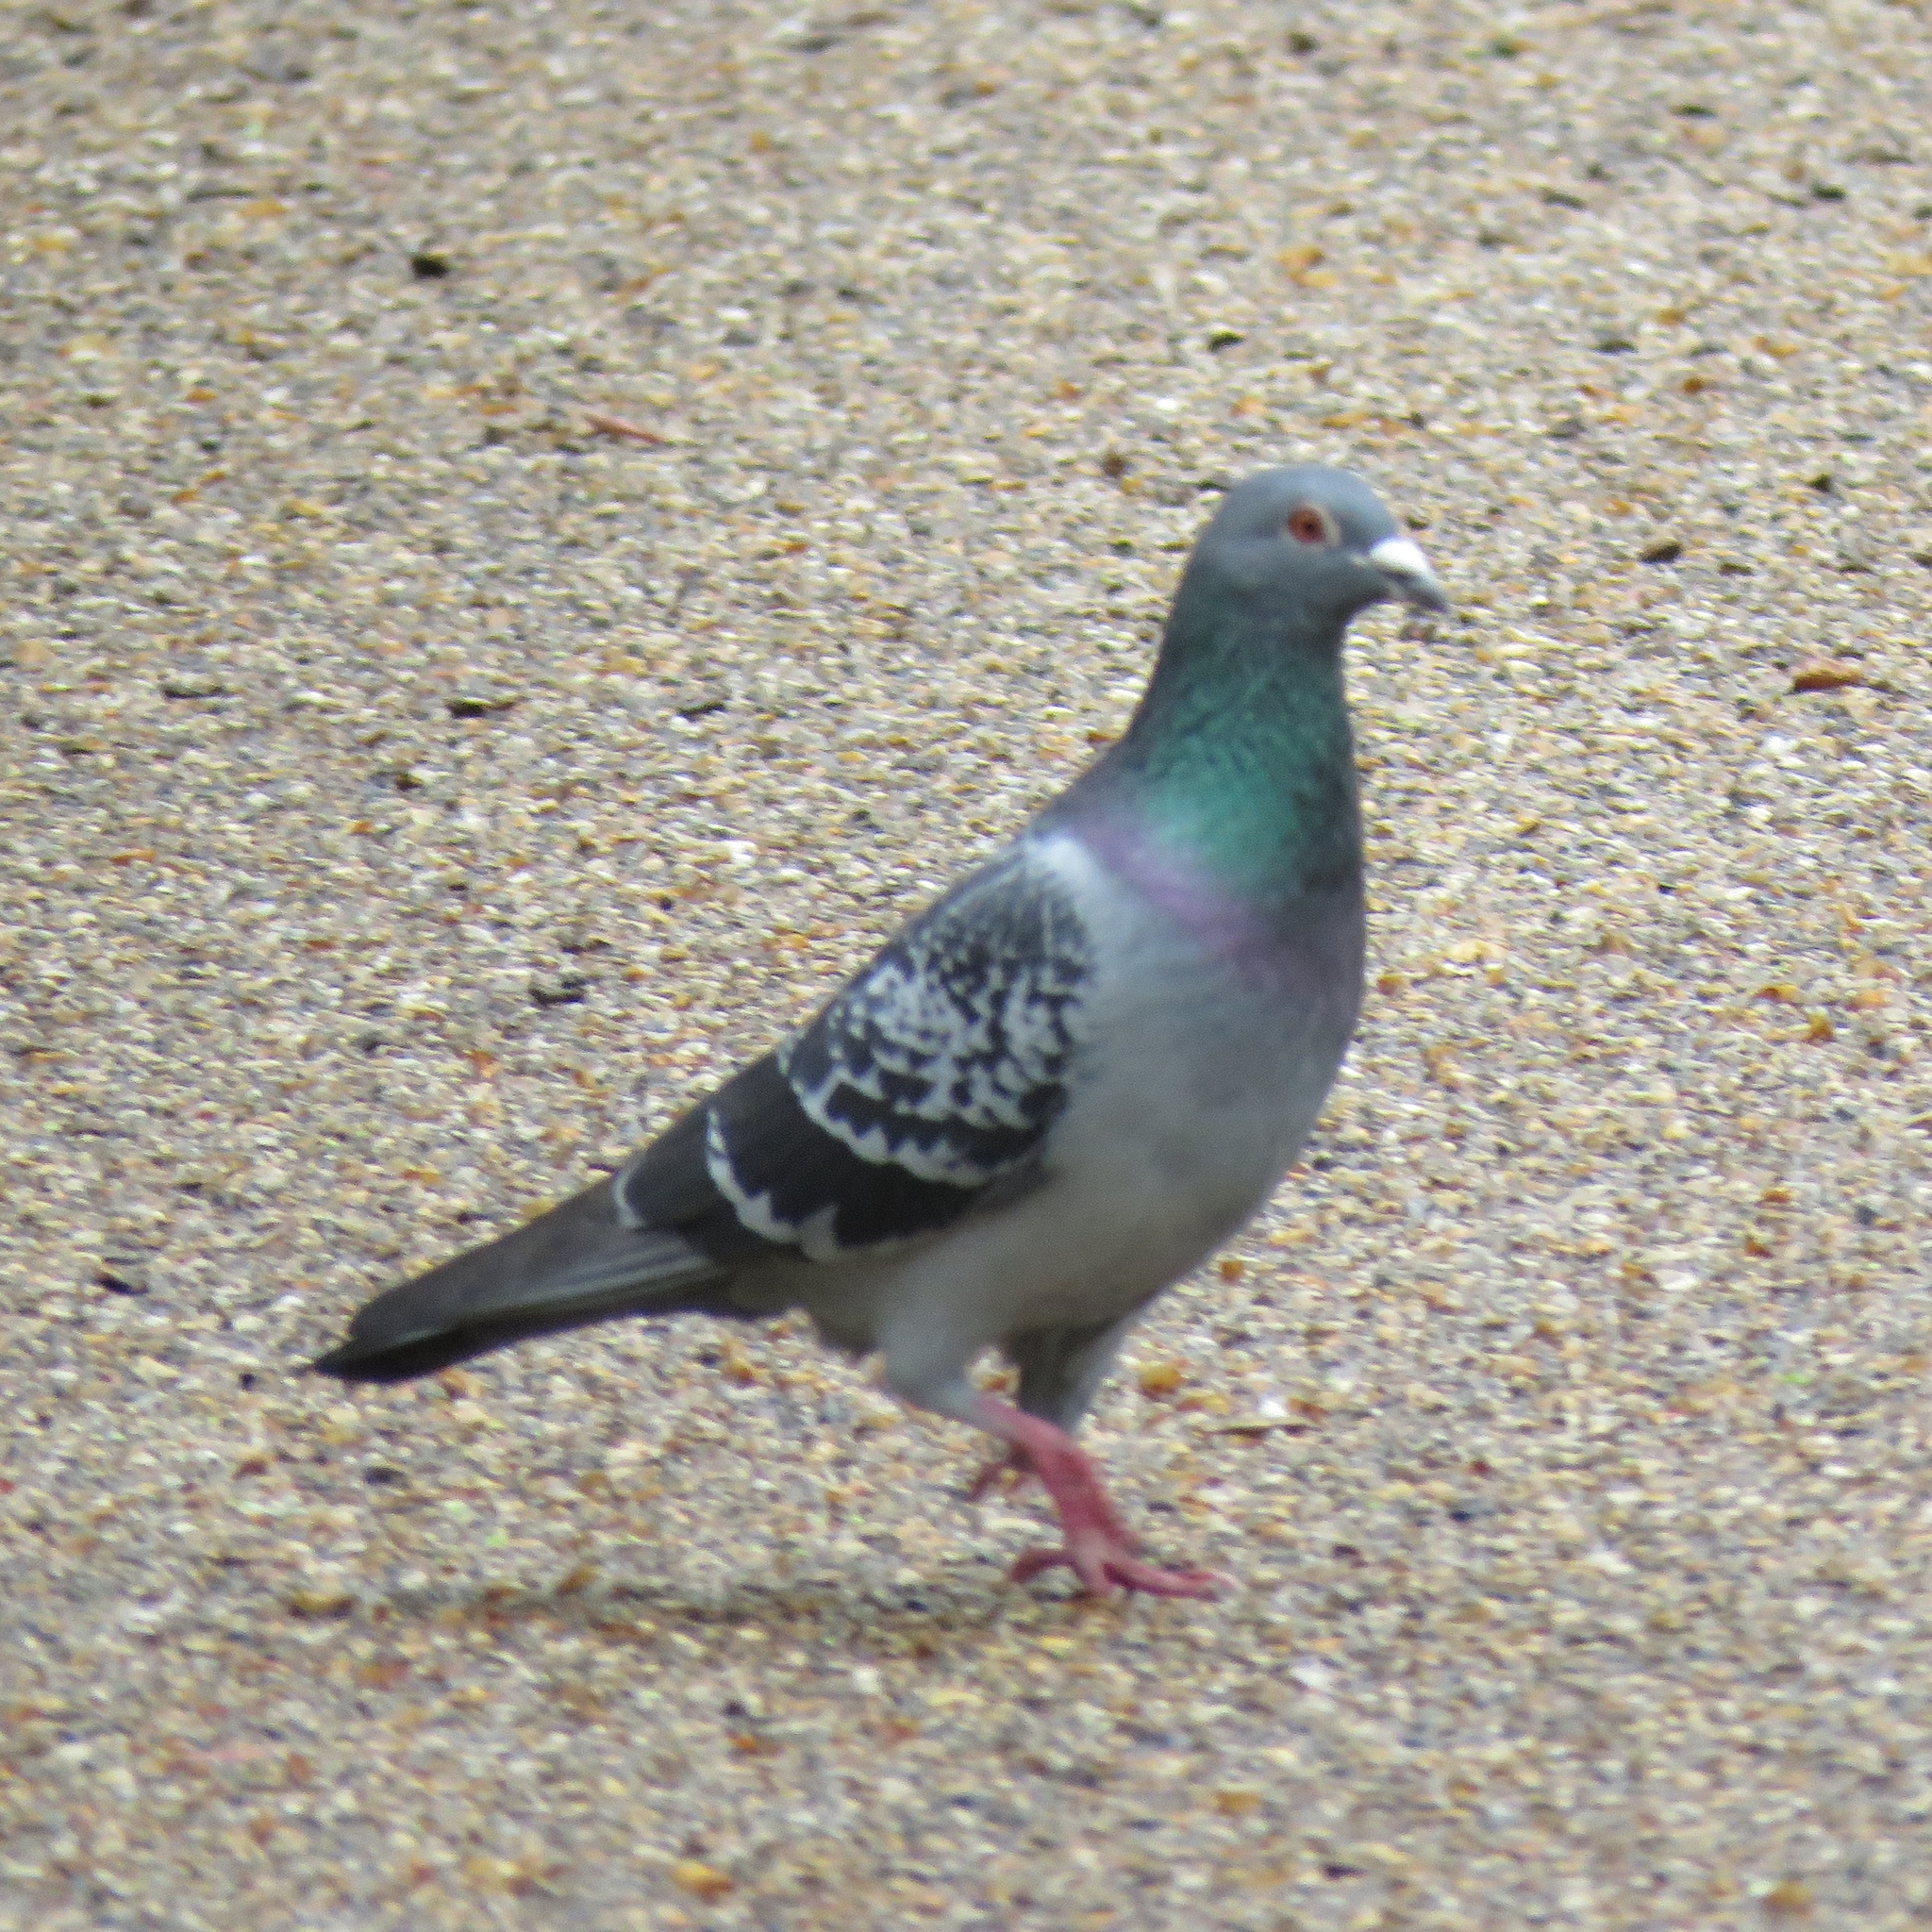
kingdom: Animalia
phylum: Chordata
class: Aves
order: Columbiformes
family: Columbidae
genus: Columba
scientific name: Columba livia
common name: Rock pigeon
